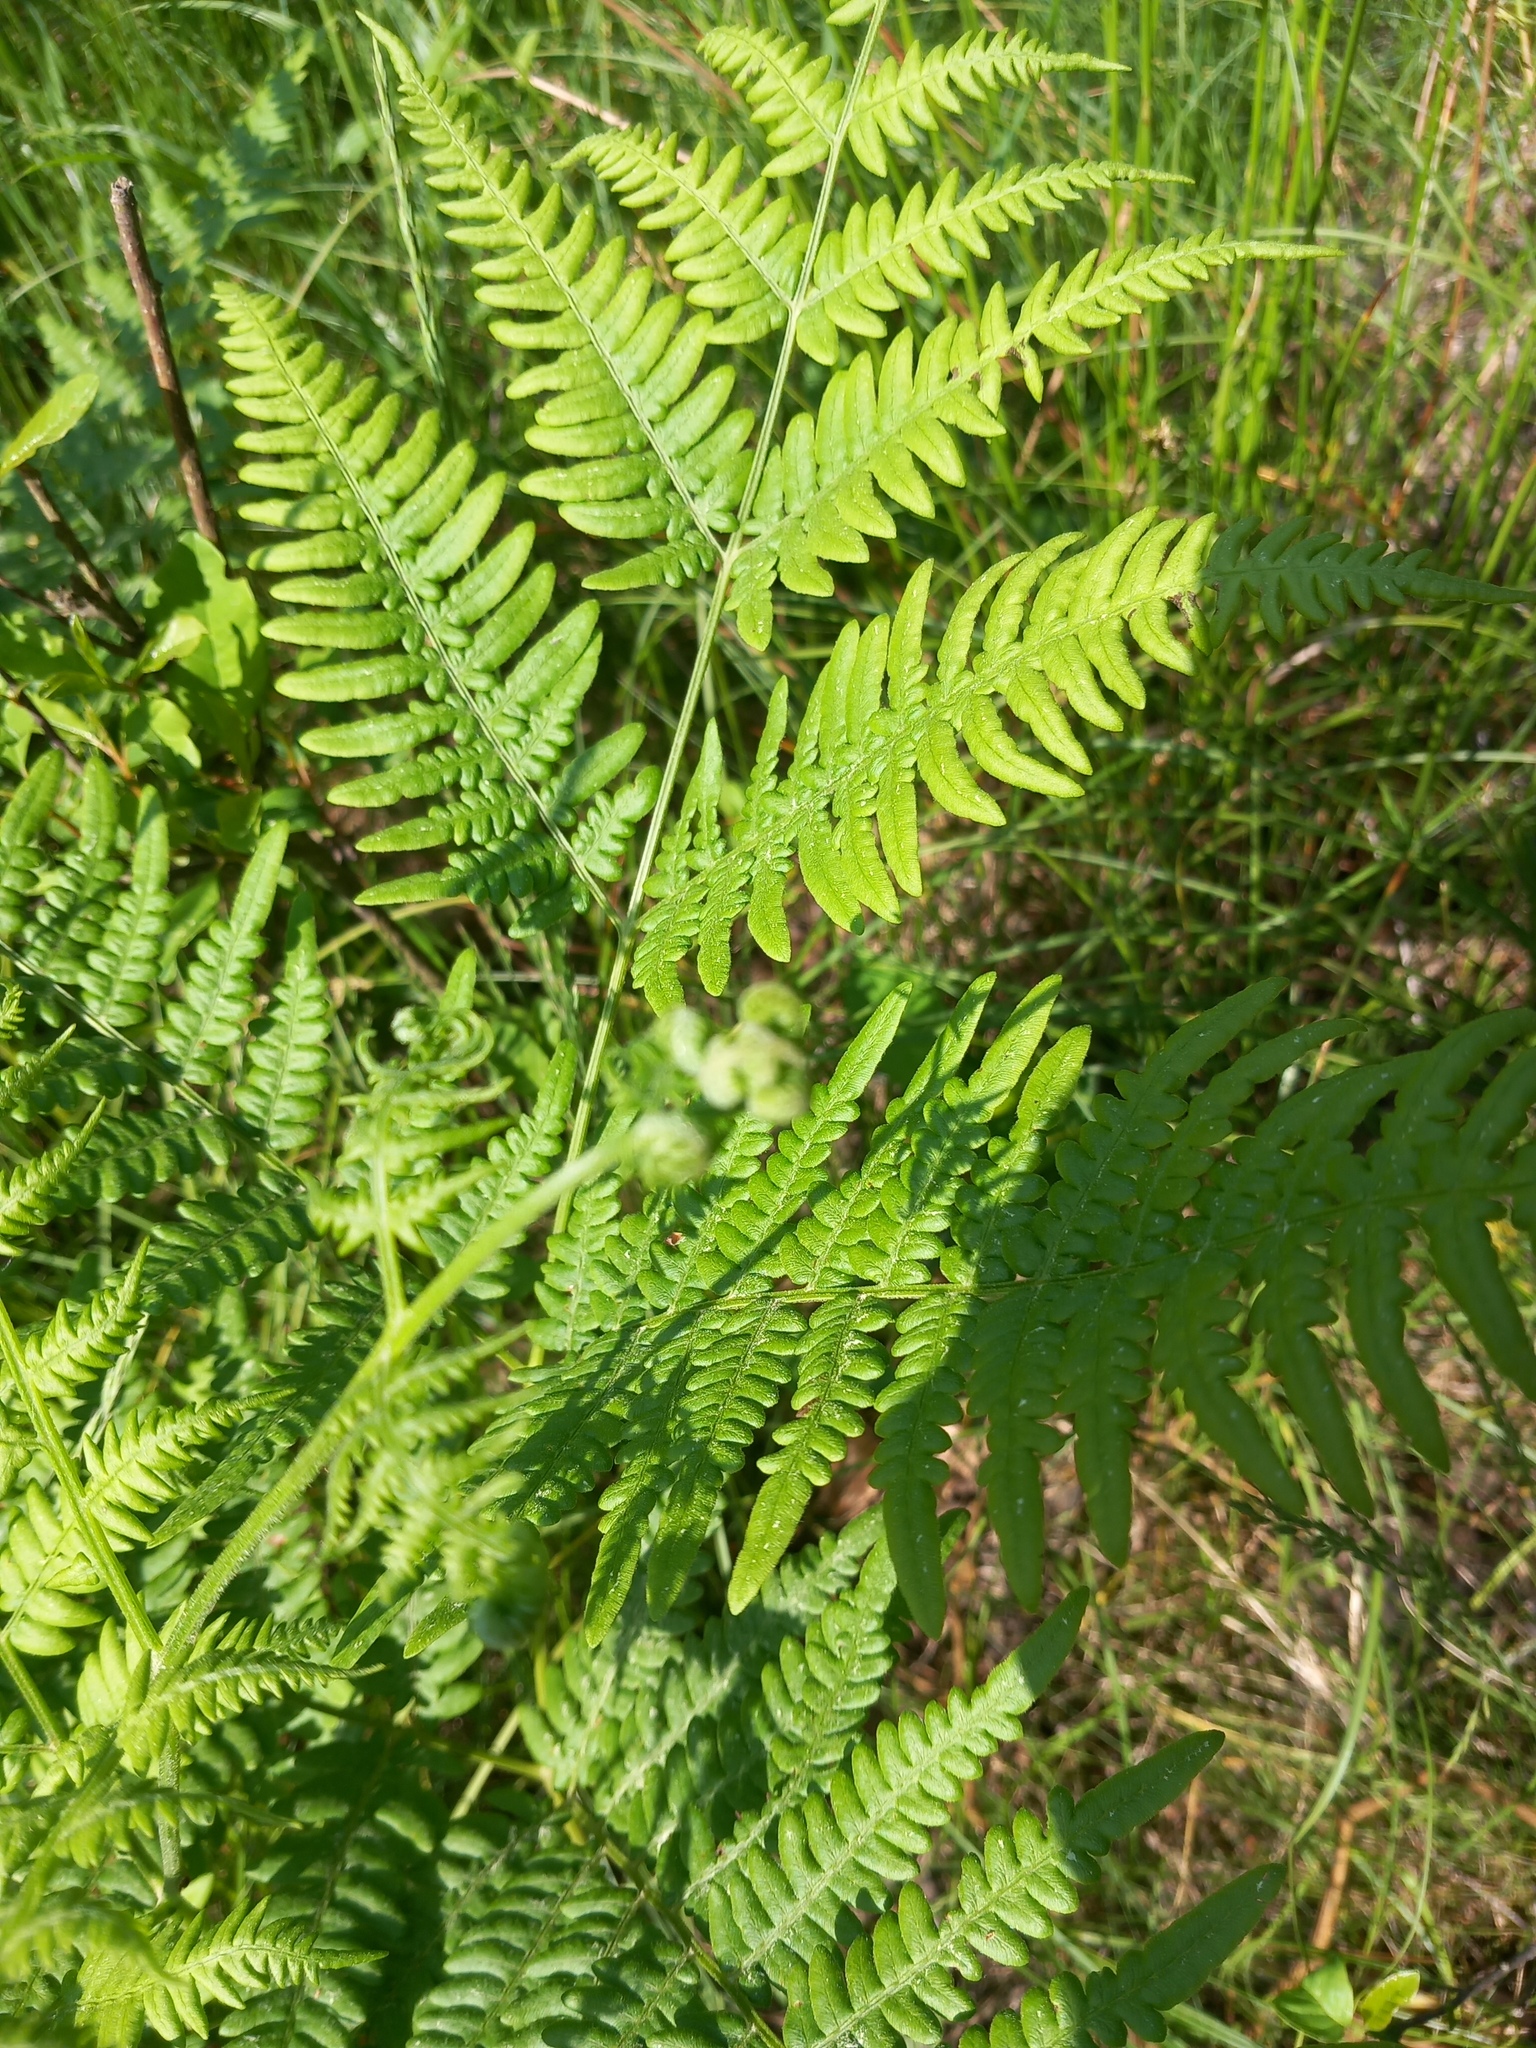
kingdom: Plantae
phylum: Tracheophyta
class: Polypodiopsida
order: Polypodiales
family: Dennstaedtiaceae
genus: Pteridium
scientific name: Pteridium aquilinum
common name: Bracken
